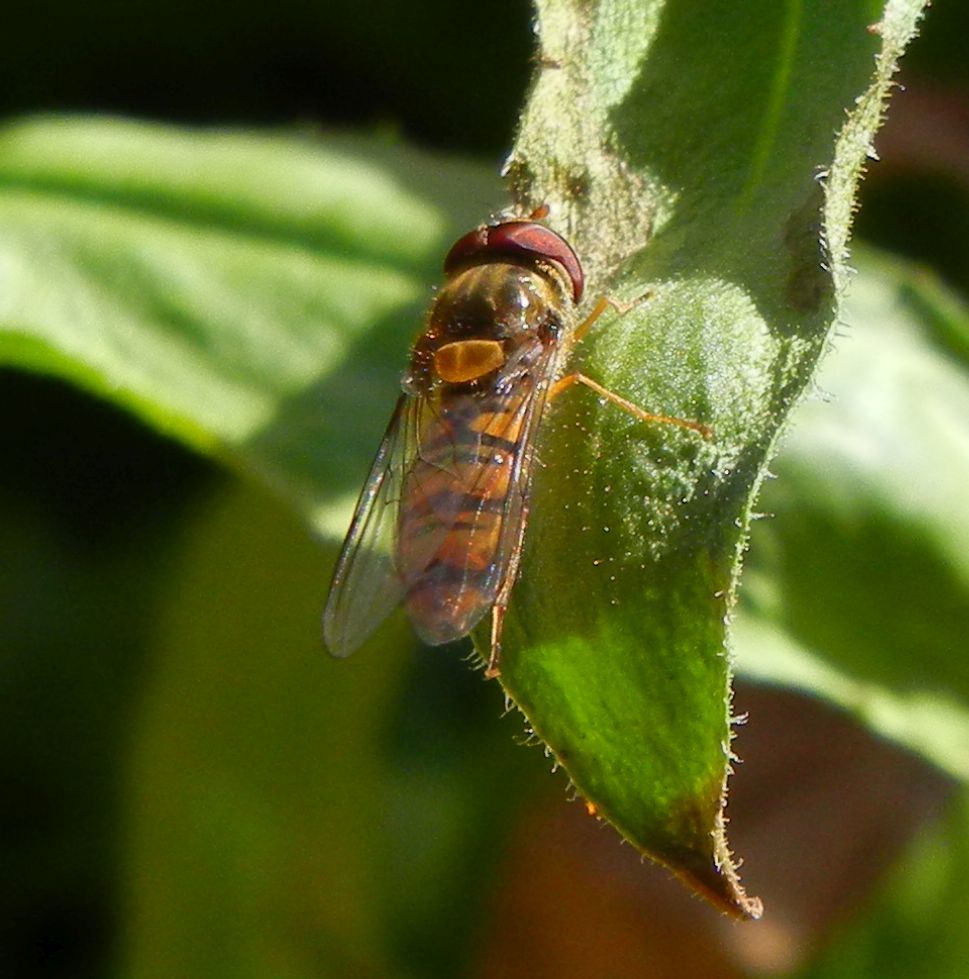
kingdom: Animalia
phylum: Arthropoda
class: Insecta
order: Diptera
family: Syrphidae
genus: Episyrphus
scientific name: Episyrphus balteatus
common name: Marmalade hoverfly
